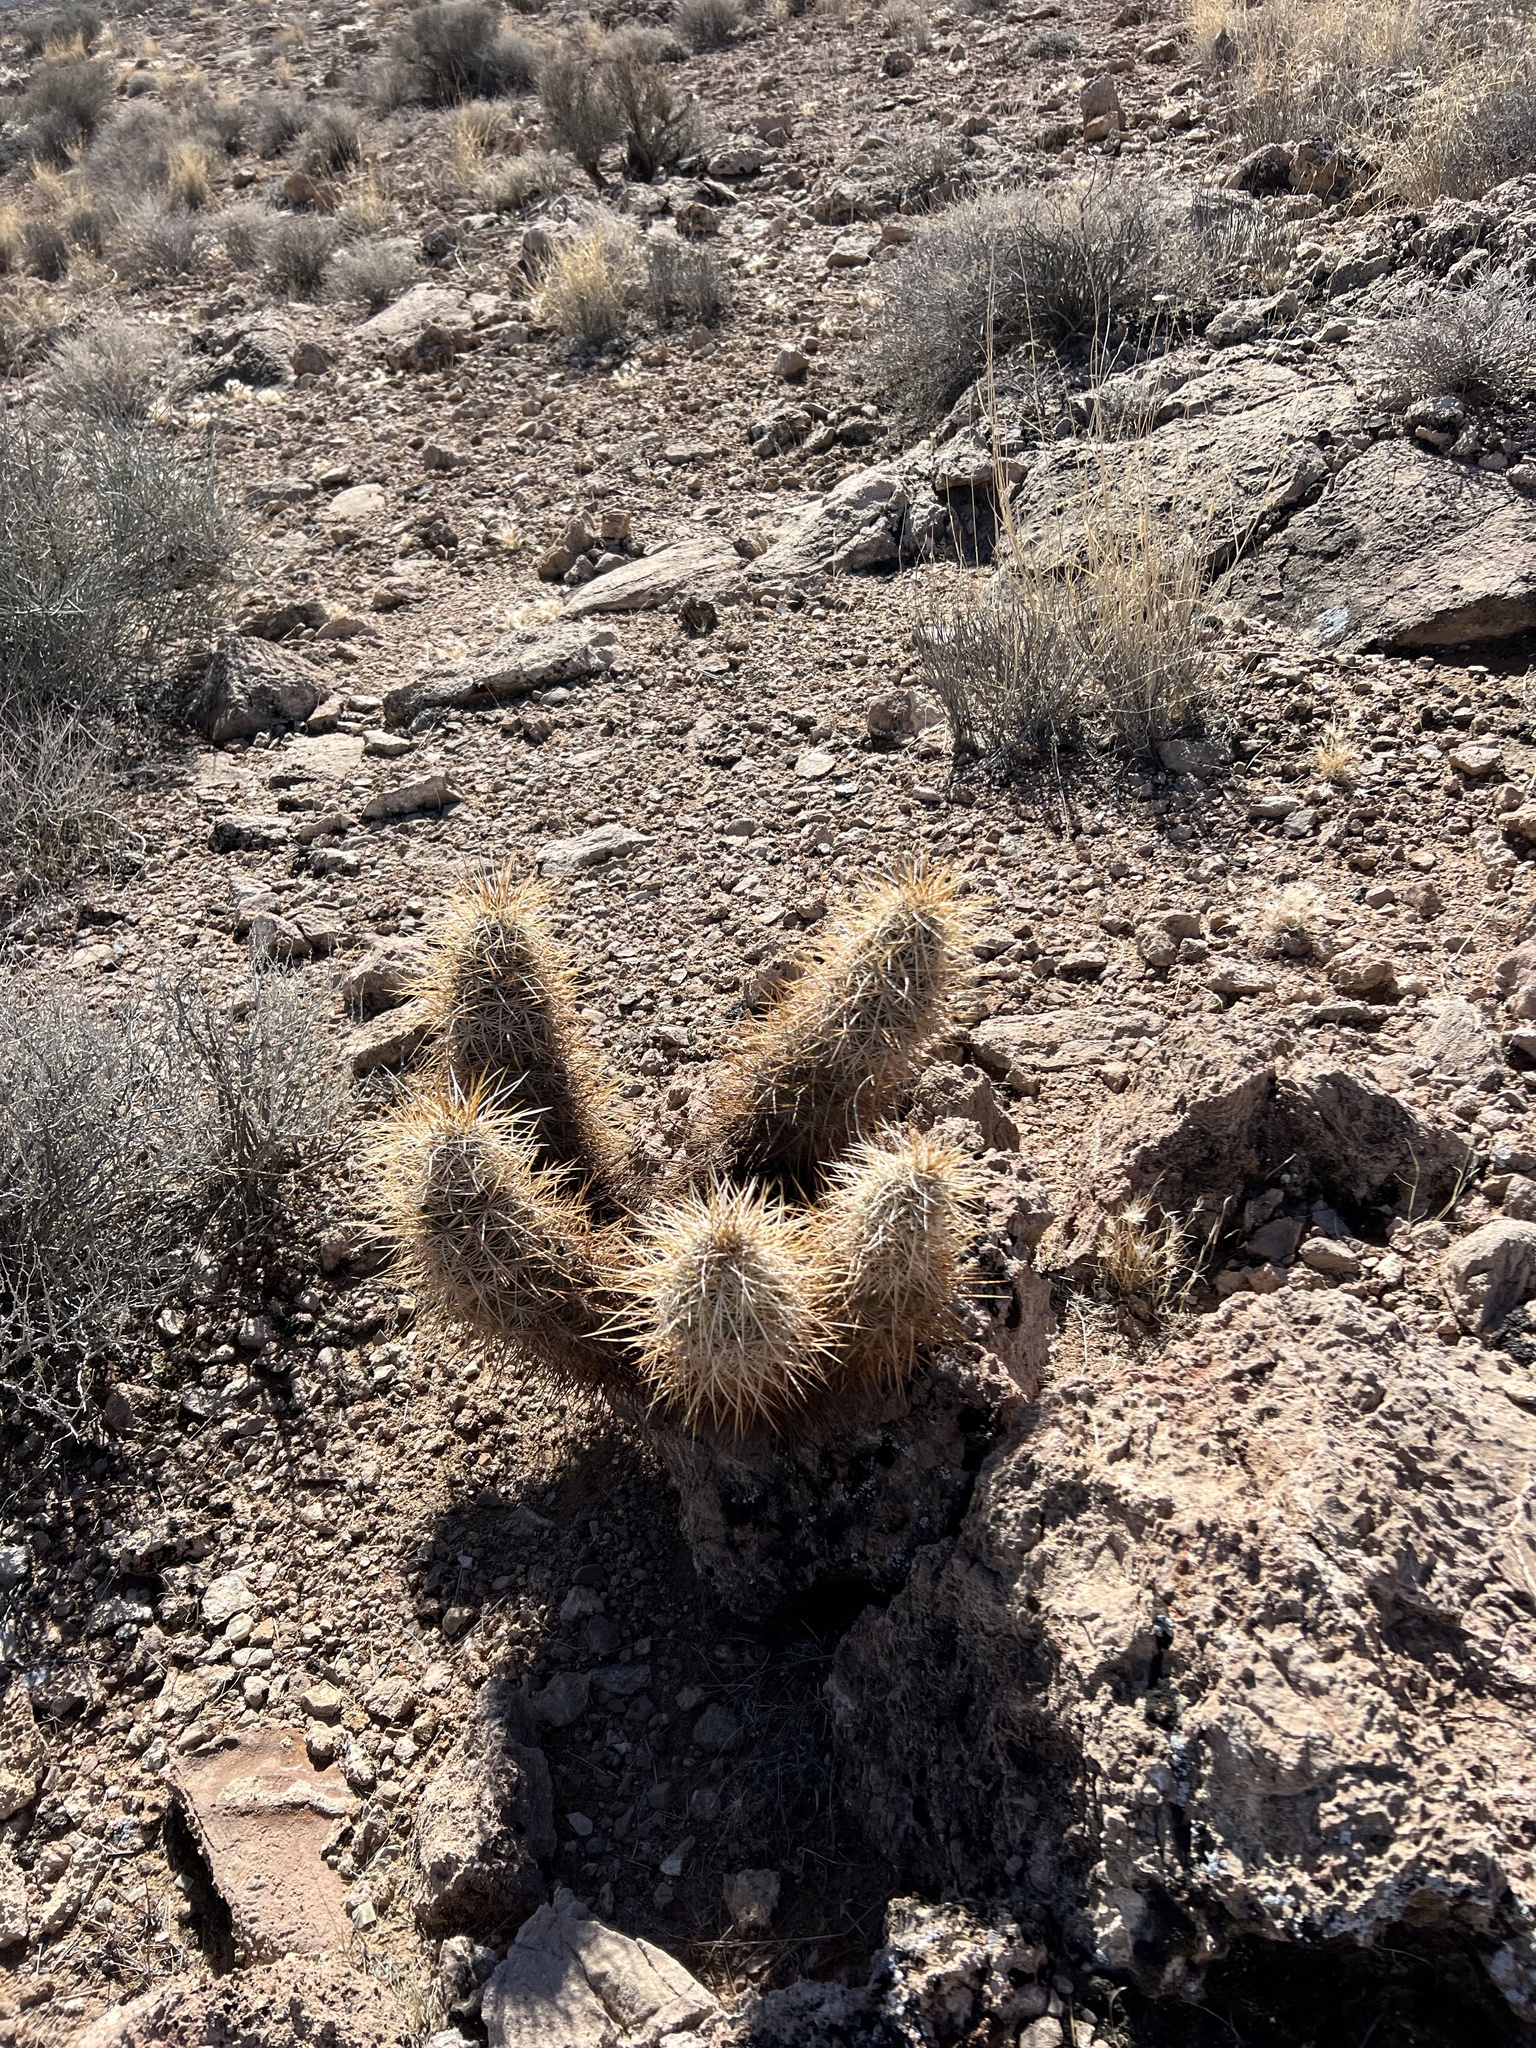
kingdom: Plantae
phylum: Tracheophyta
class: Magnoliopsida
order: Caryophyllales
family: Cactaceae
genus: Echinocereus
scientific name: Echinocereus engelmannii
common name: Engelmann's hedgehog cactus
